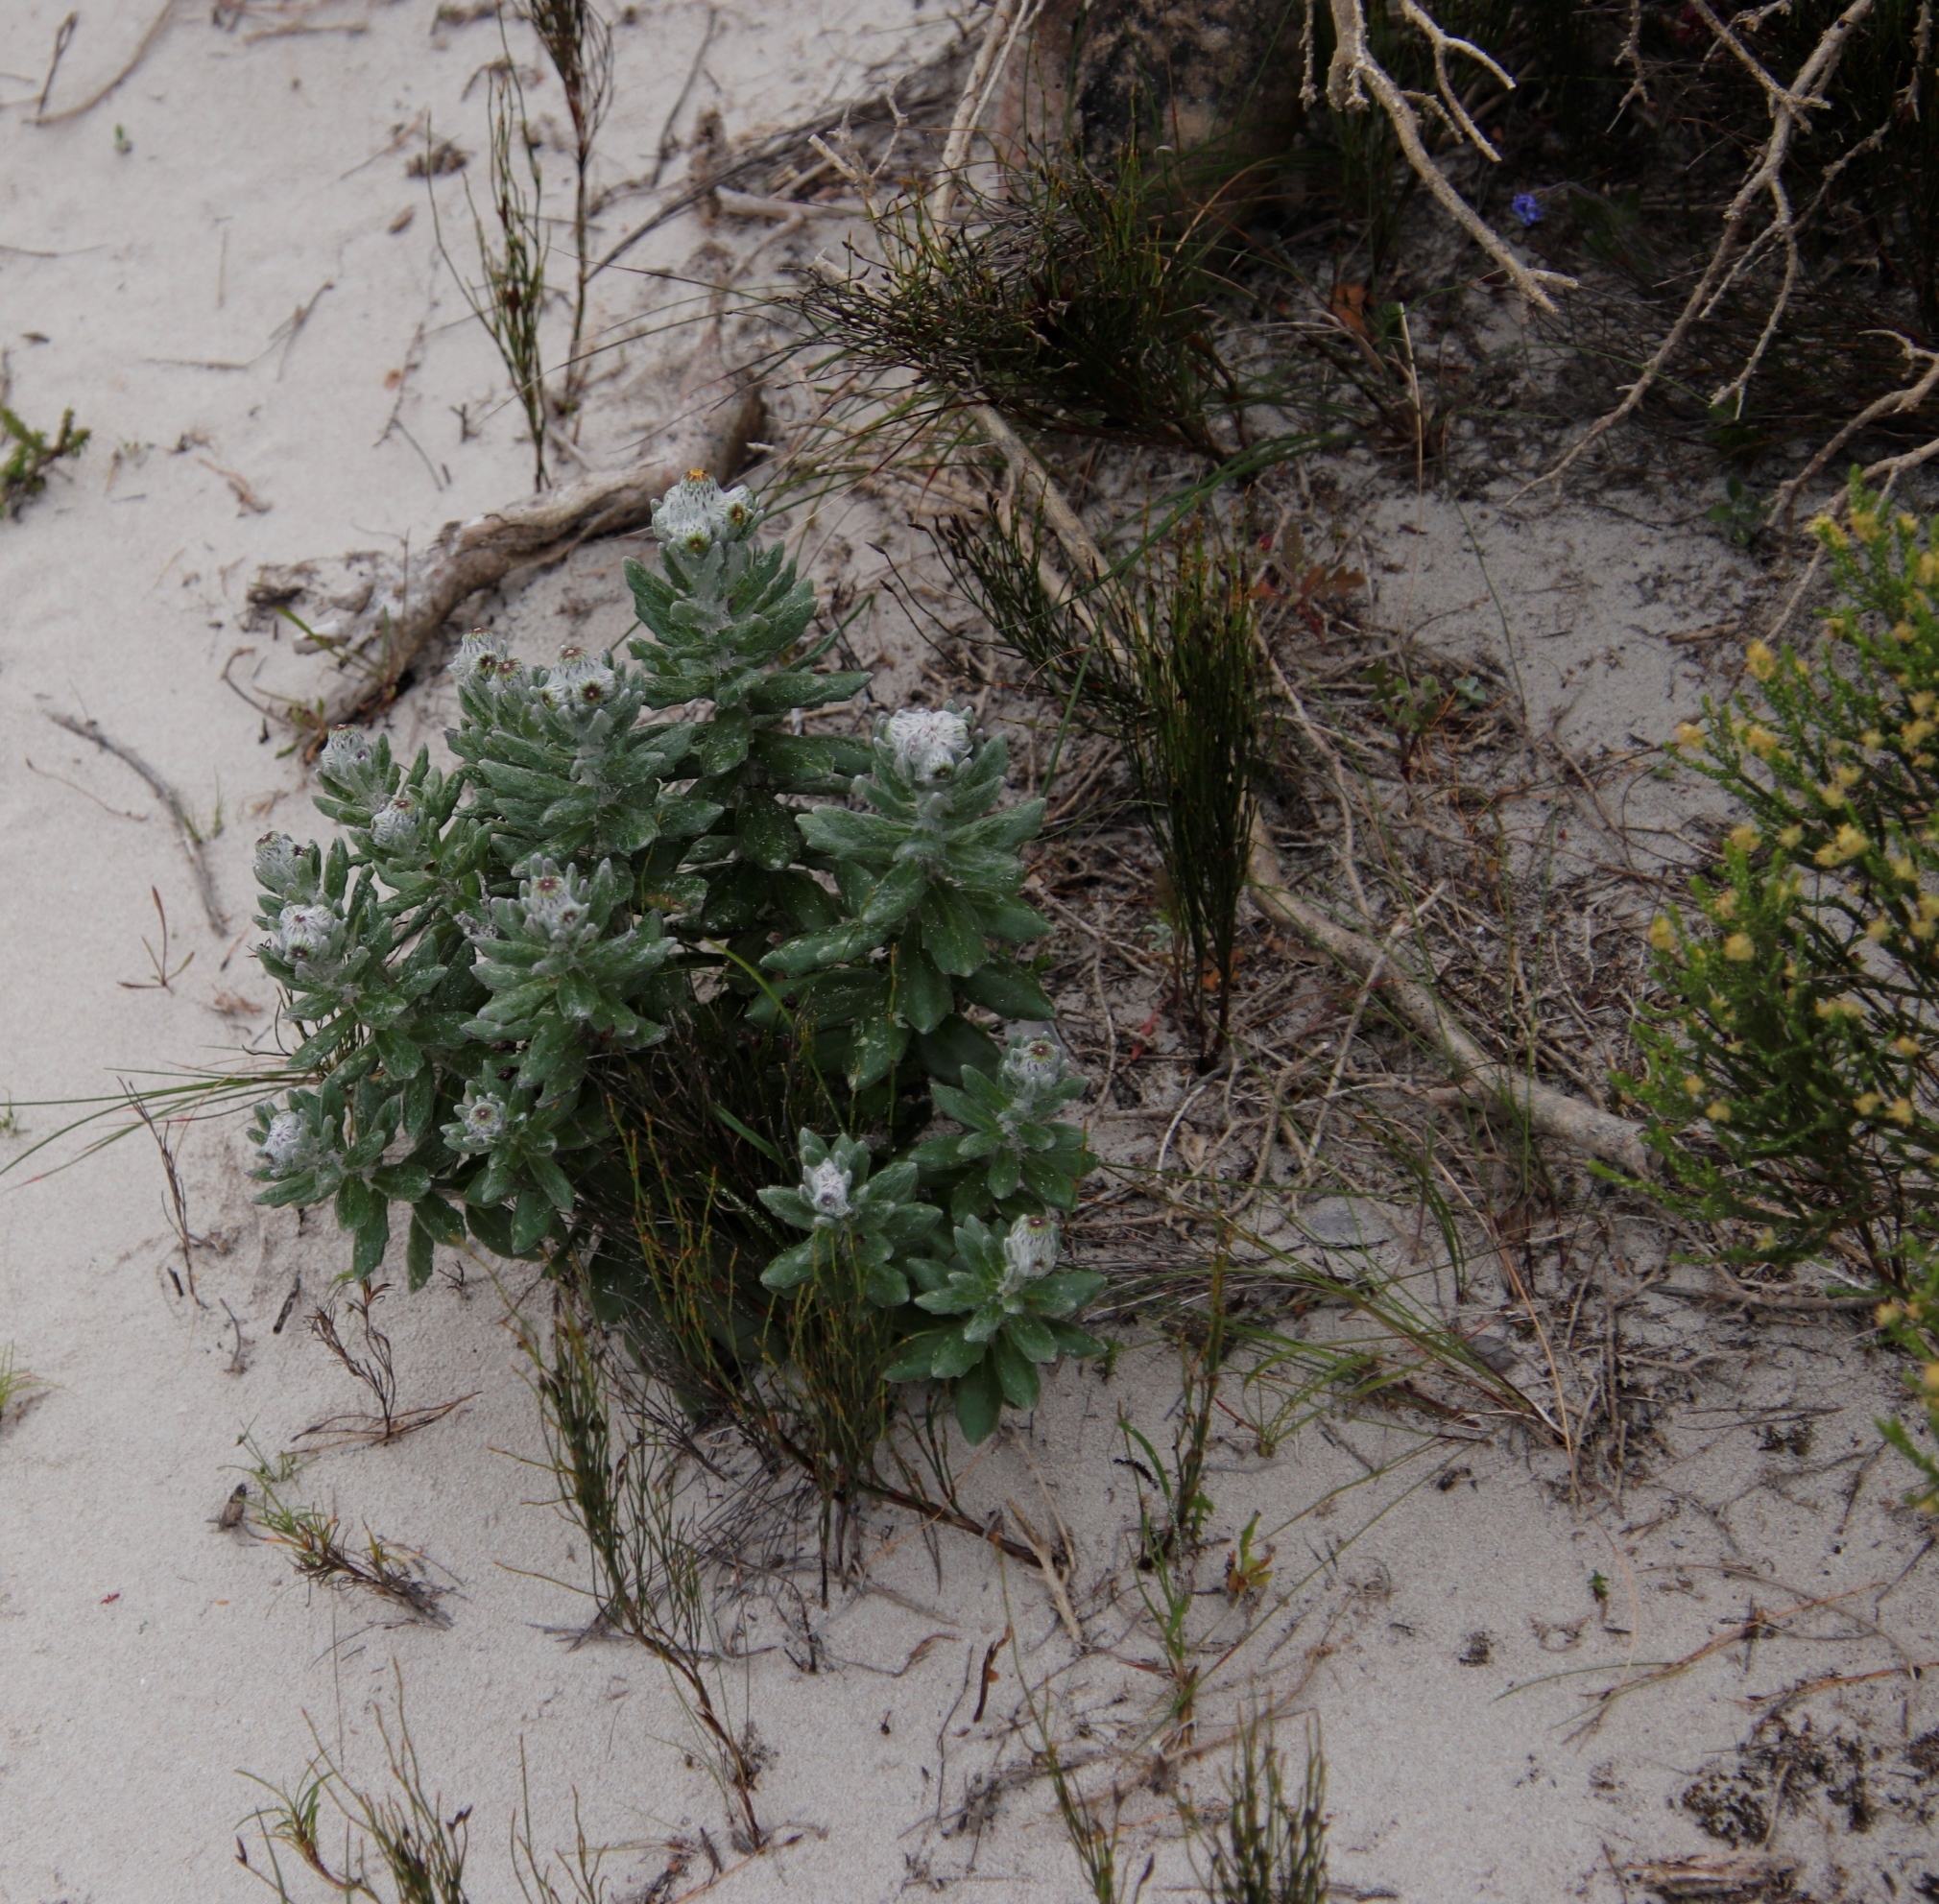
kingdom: Plantae
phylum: Tracheophyta
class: Magnoliopsida
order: Asterales
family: Asteraceae
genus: Senecio
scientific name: Senecio arniciflorus
